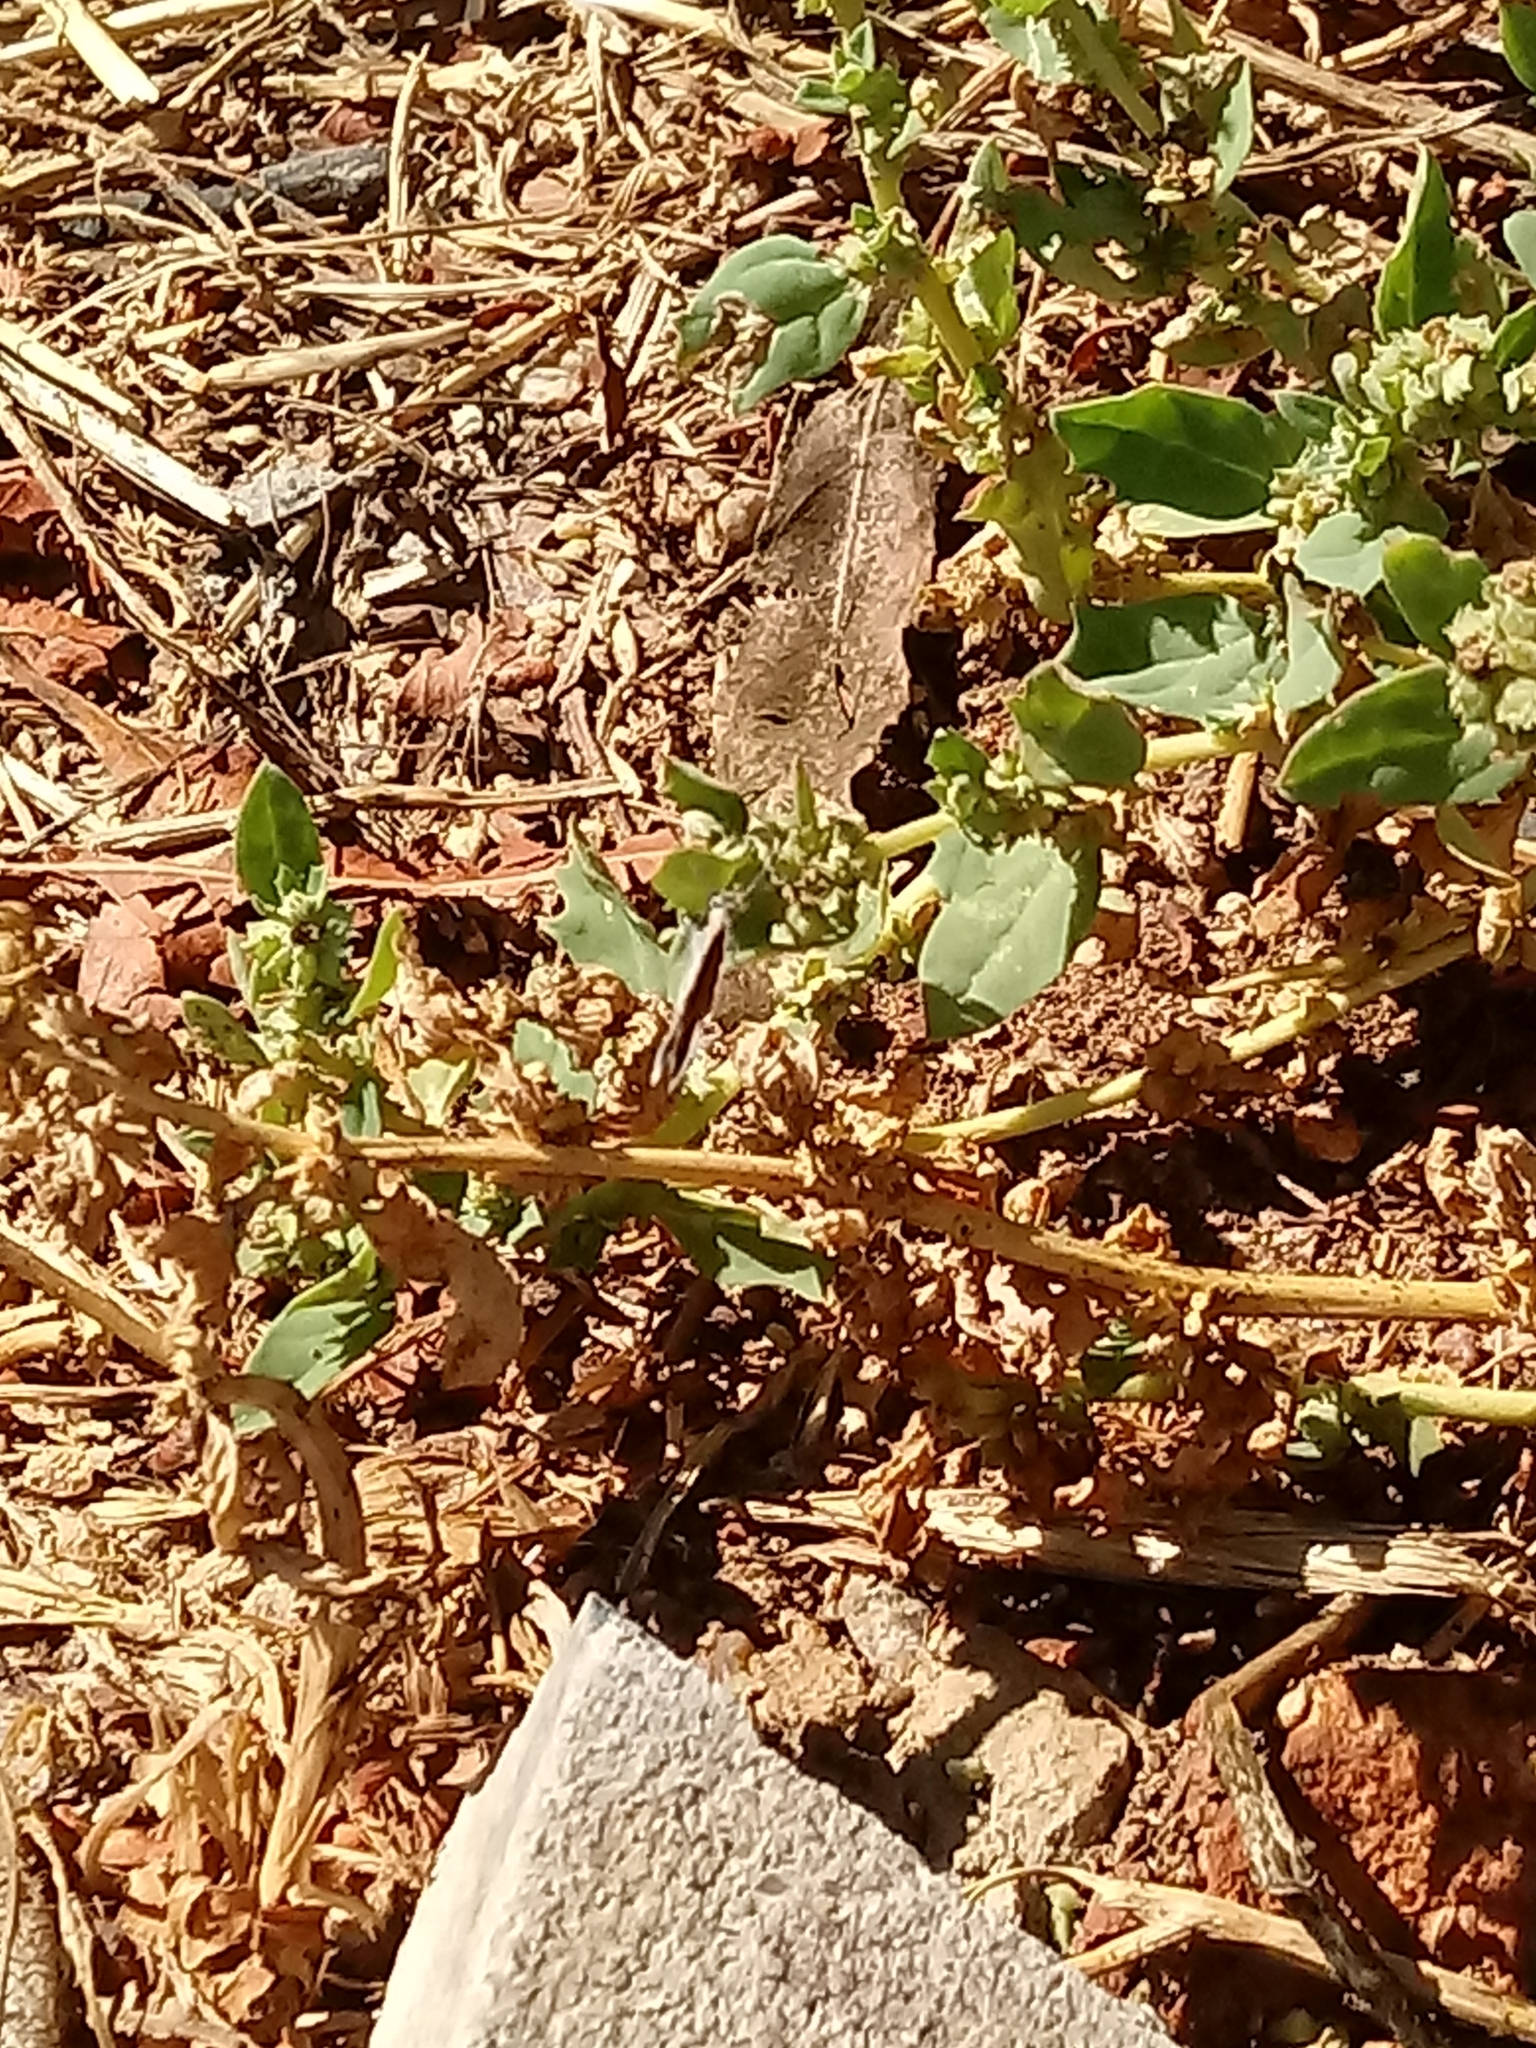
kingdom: Plantae
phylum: Tracheophyta
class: Magnoliopsida
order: Caryophyllales
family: Amaranthaceae
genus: Atriplex
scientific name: Atriplex semibaccata
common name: Australian saltbush
